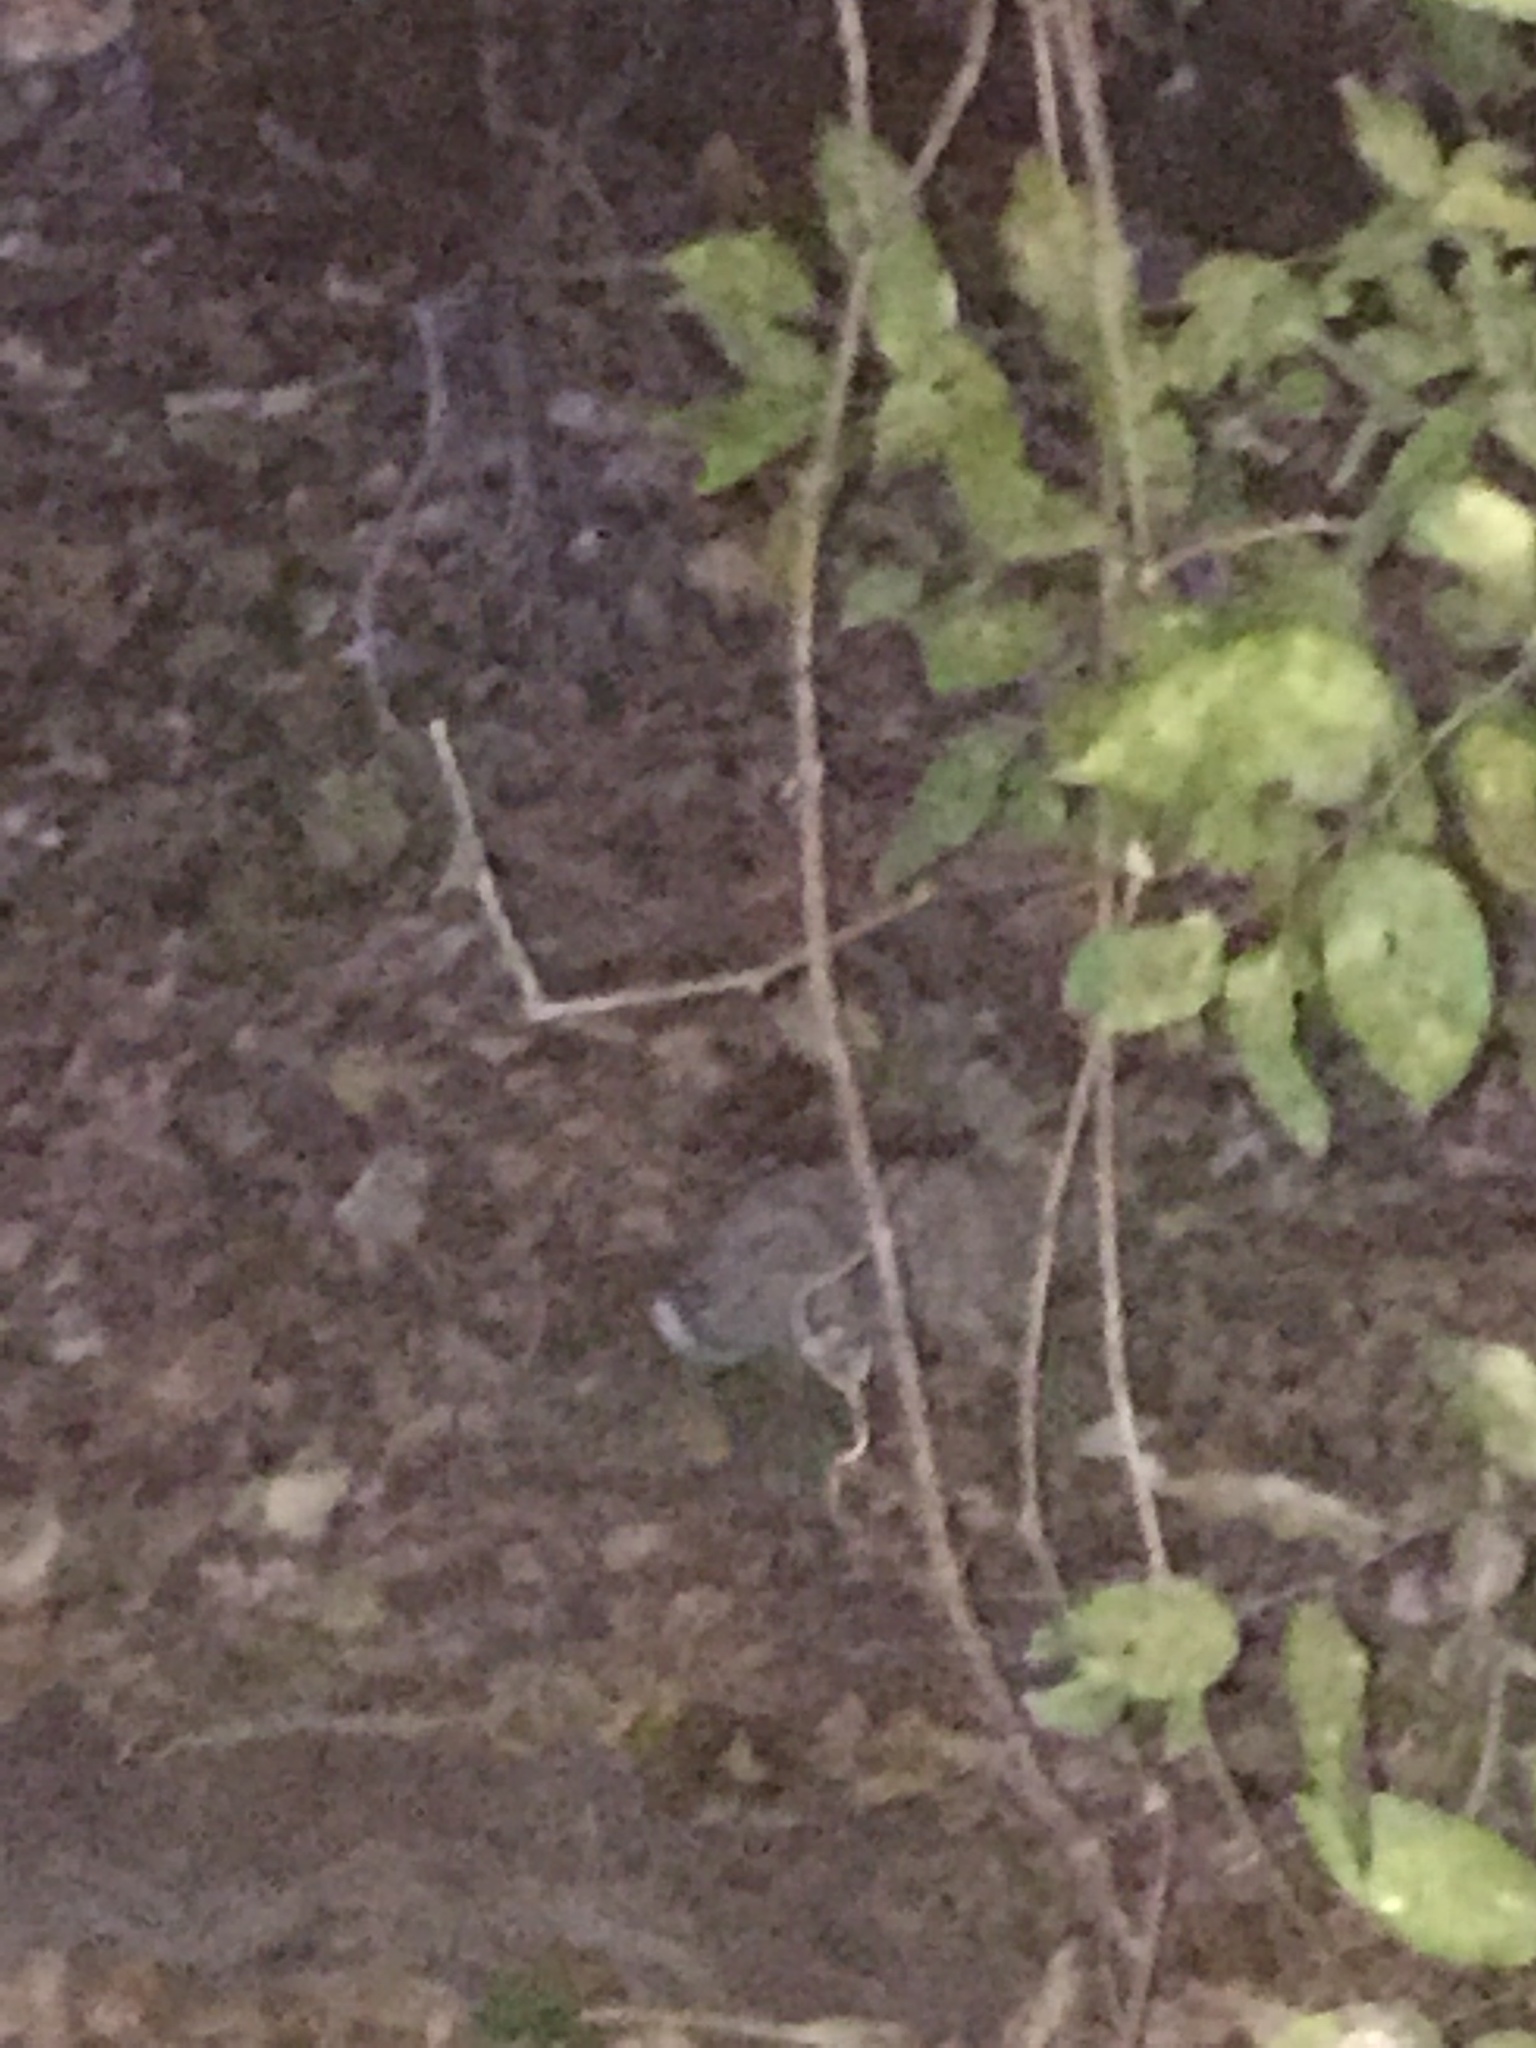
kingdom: Animalia
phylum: Chordata
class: Mammalia
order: Lagomorpha
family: Leporidae
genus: Sylvilagus
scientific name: Sylvilagus floridanus
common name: Eastern cottontail
